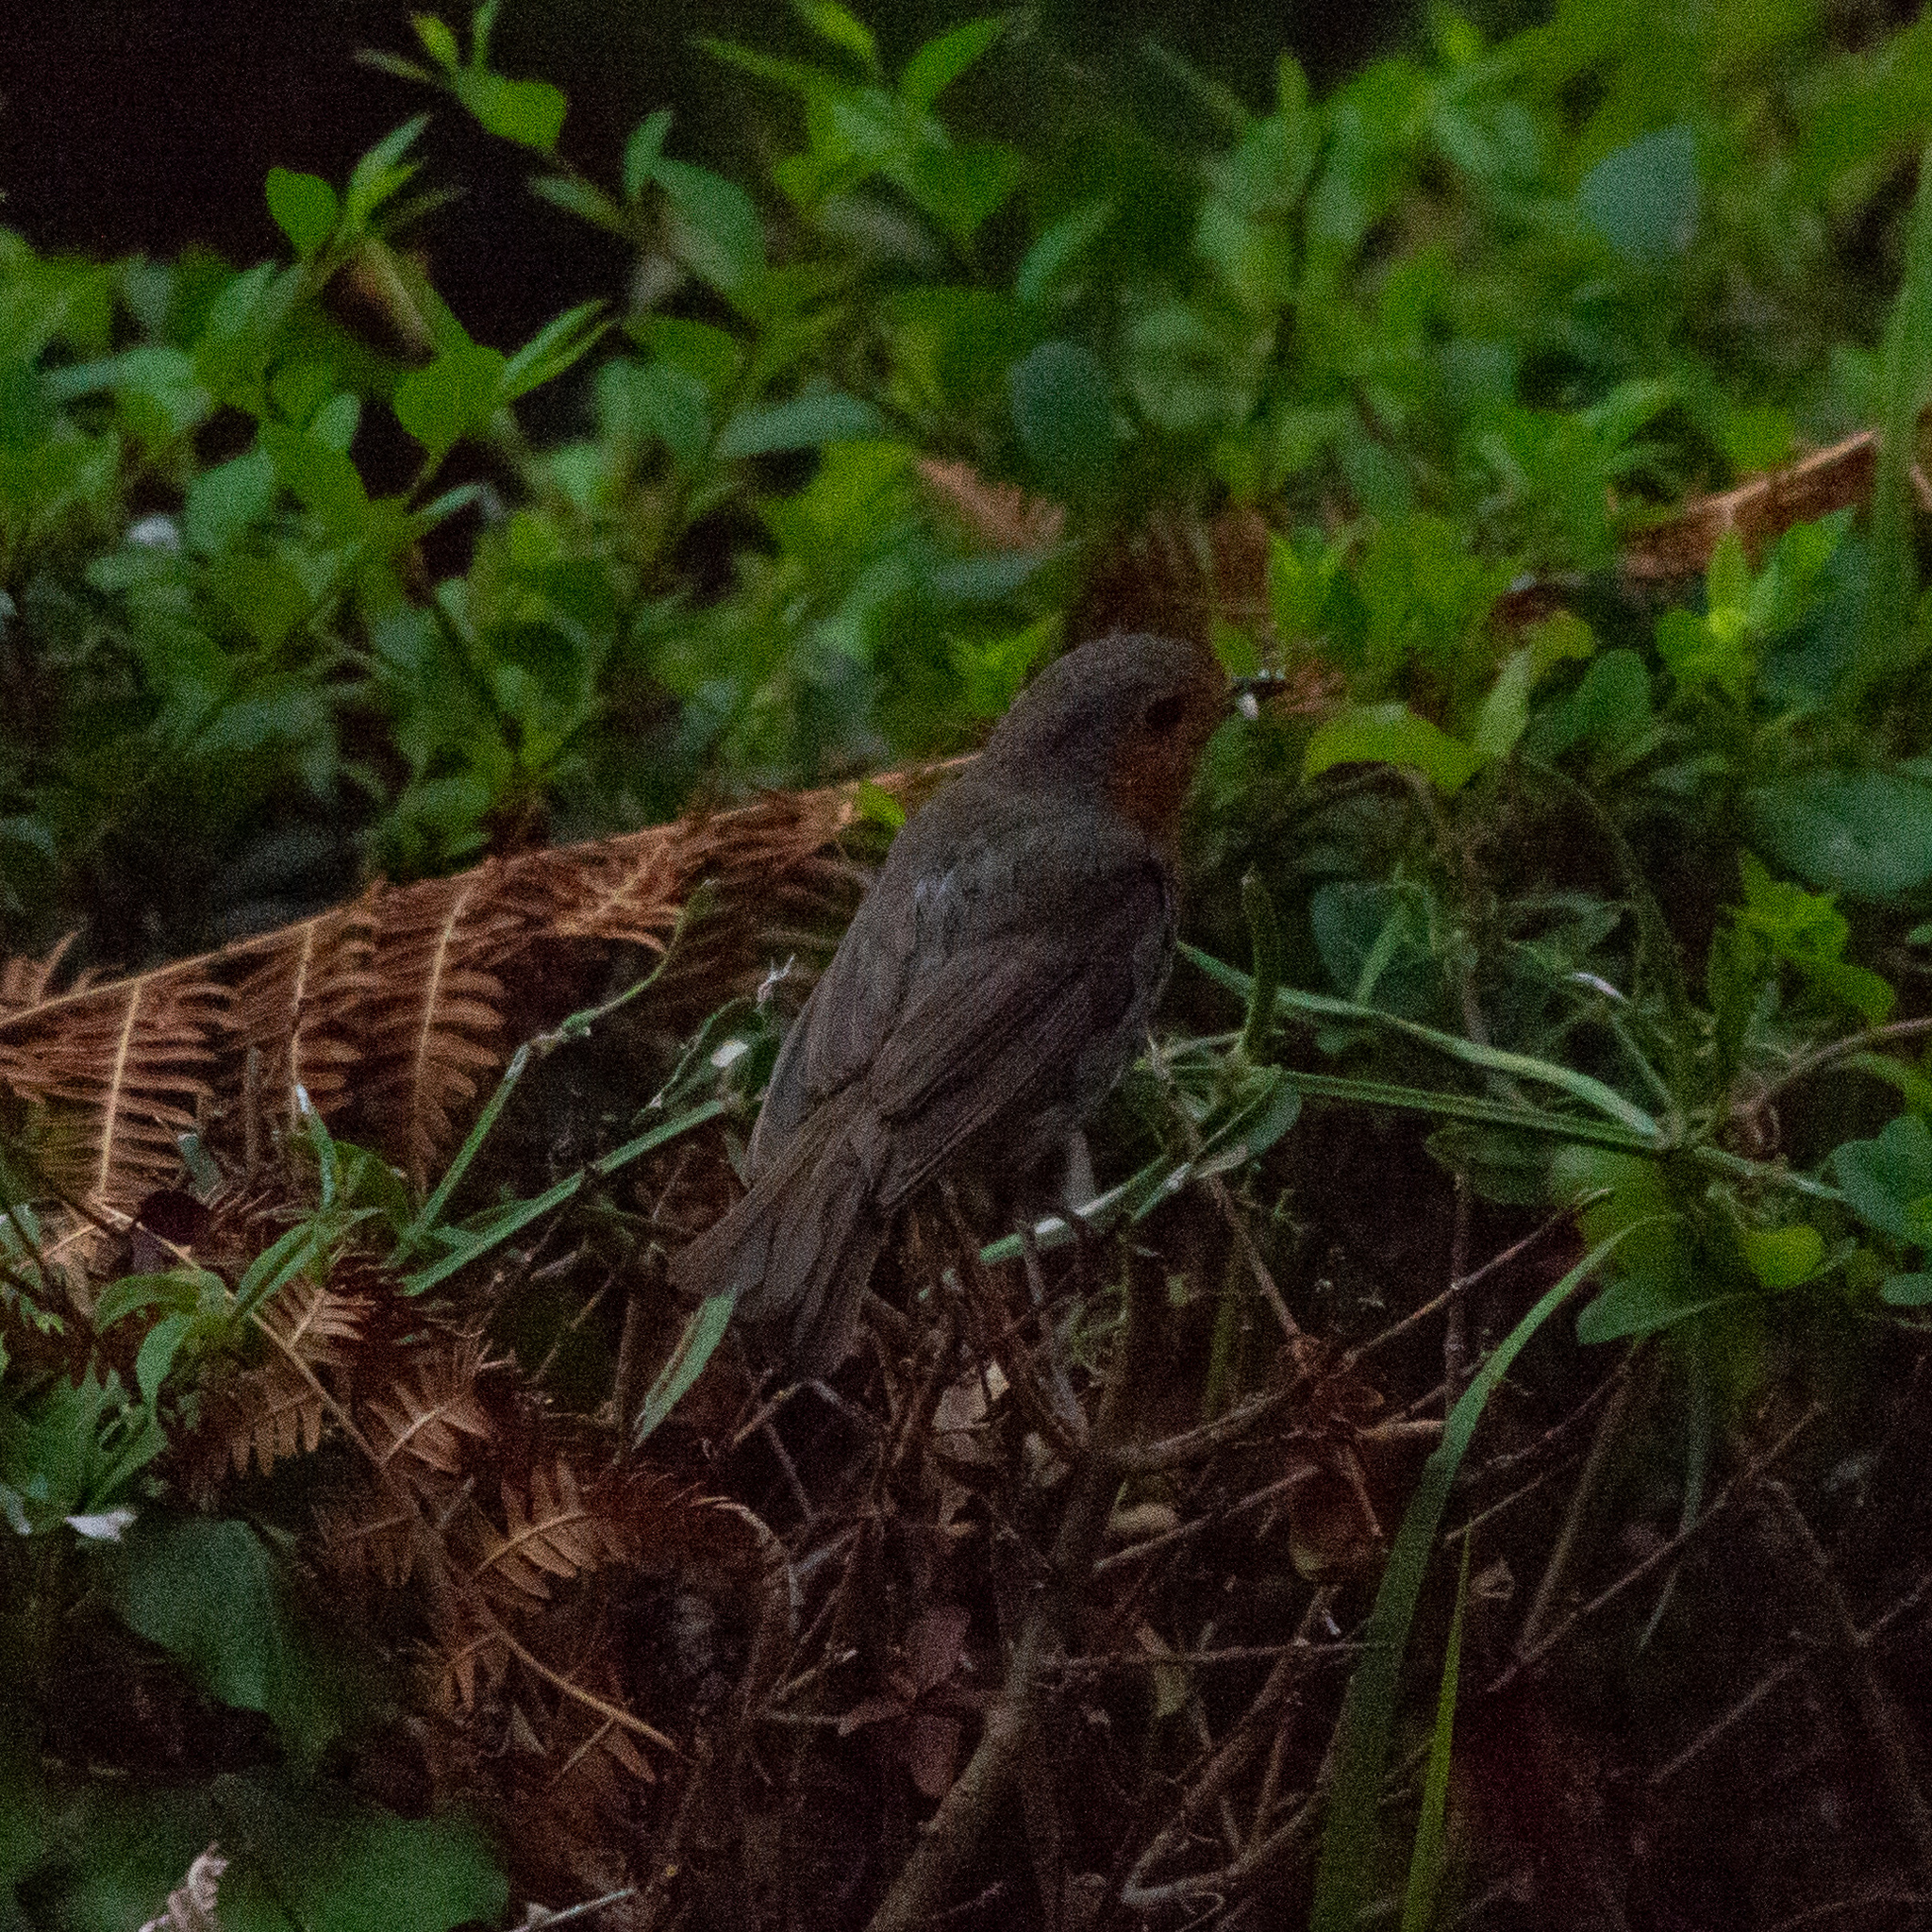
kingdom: Animalia
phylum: Chordata
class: Aves
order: Passeriformes
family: Muscicapidae
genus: Erithacus
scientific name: Erithacus rubecula
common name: European robin
